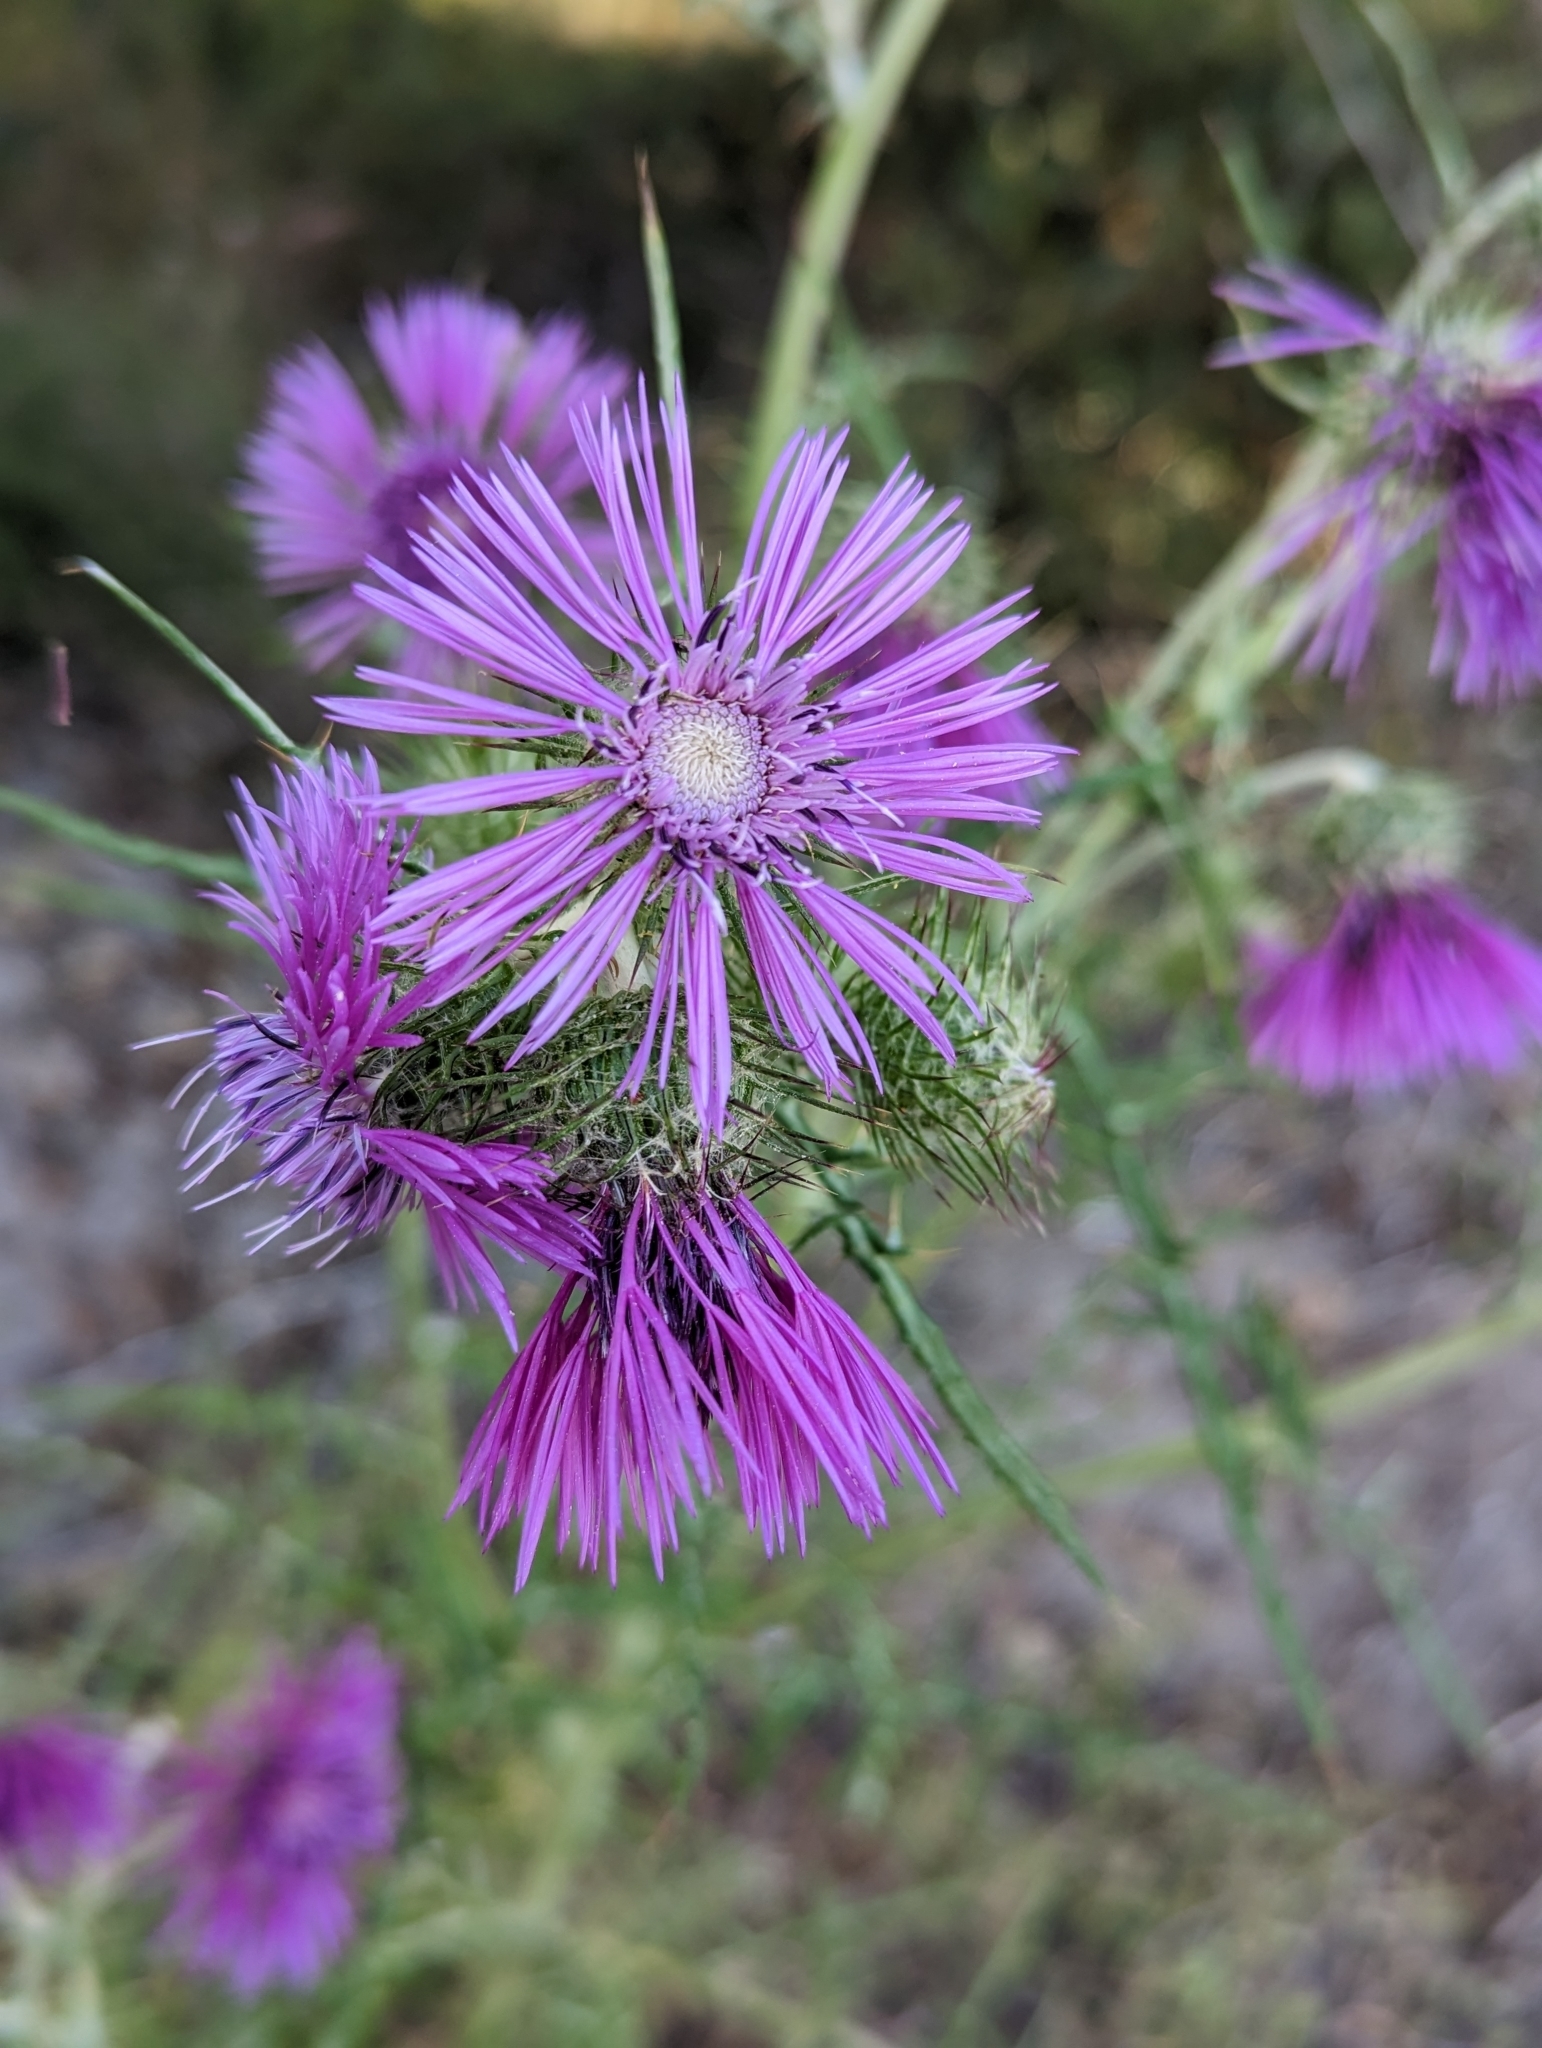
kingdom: Plantae
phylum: Tracheophyta
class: Magnoliopsida
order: Asterales
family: Asteraceae
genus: Galactites
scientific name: Galactites tomentosa
